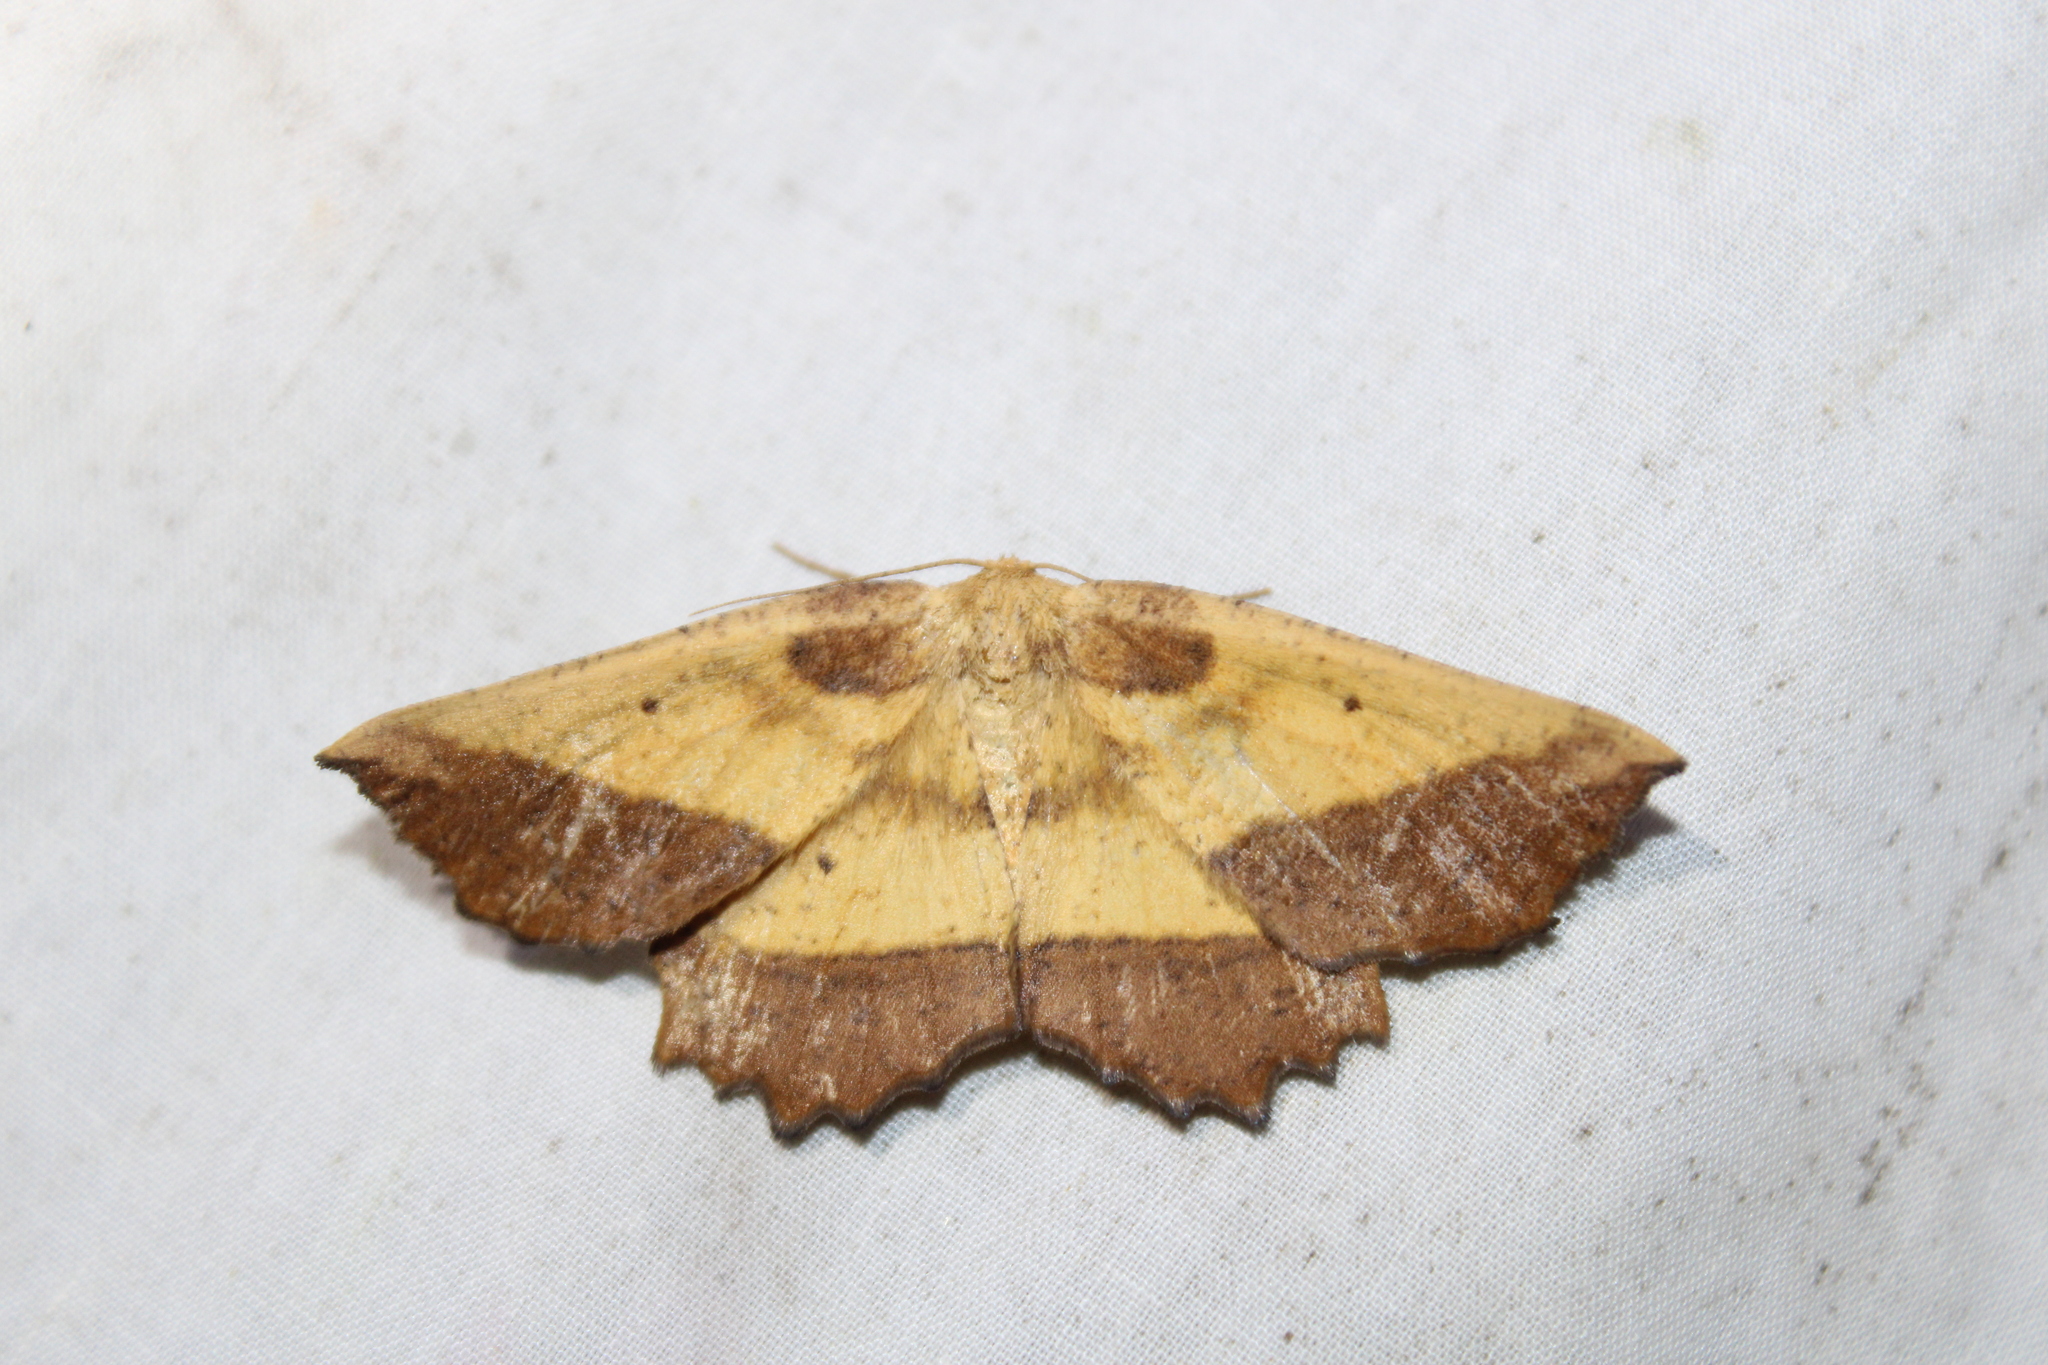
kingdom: Animalia
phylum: Arthropoda
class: Insecta
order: Lepidoptera
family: Geometridae
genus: Euchlaena
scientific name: Euchlaena serrata
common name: Saw wing
